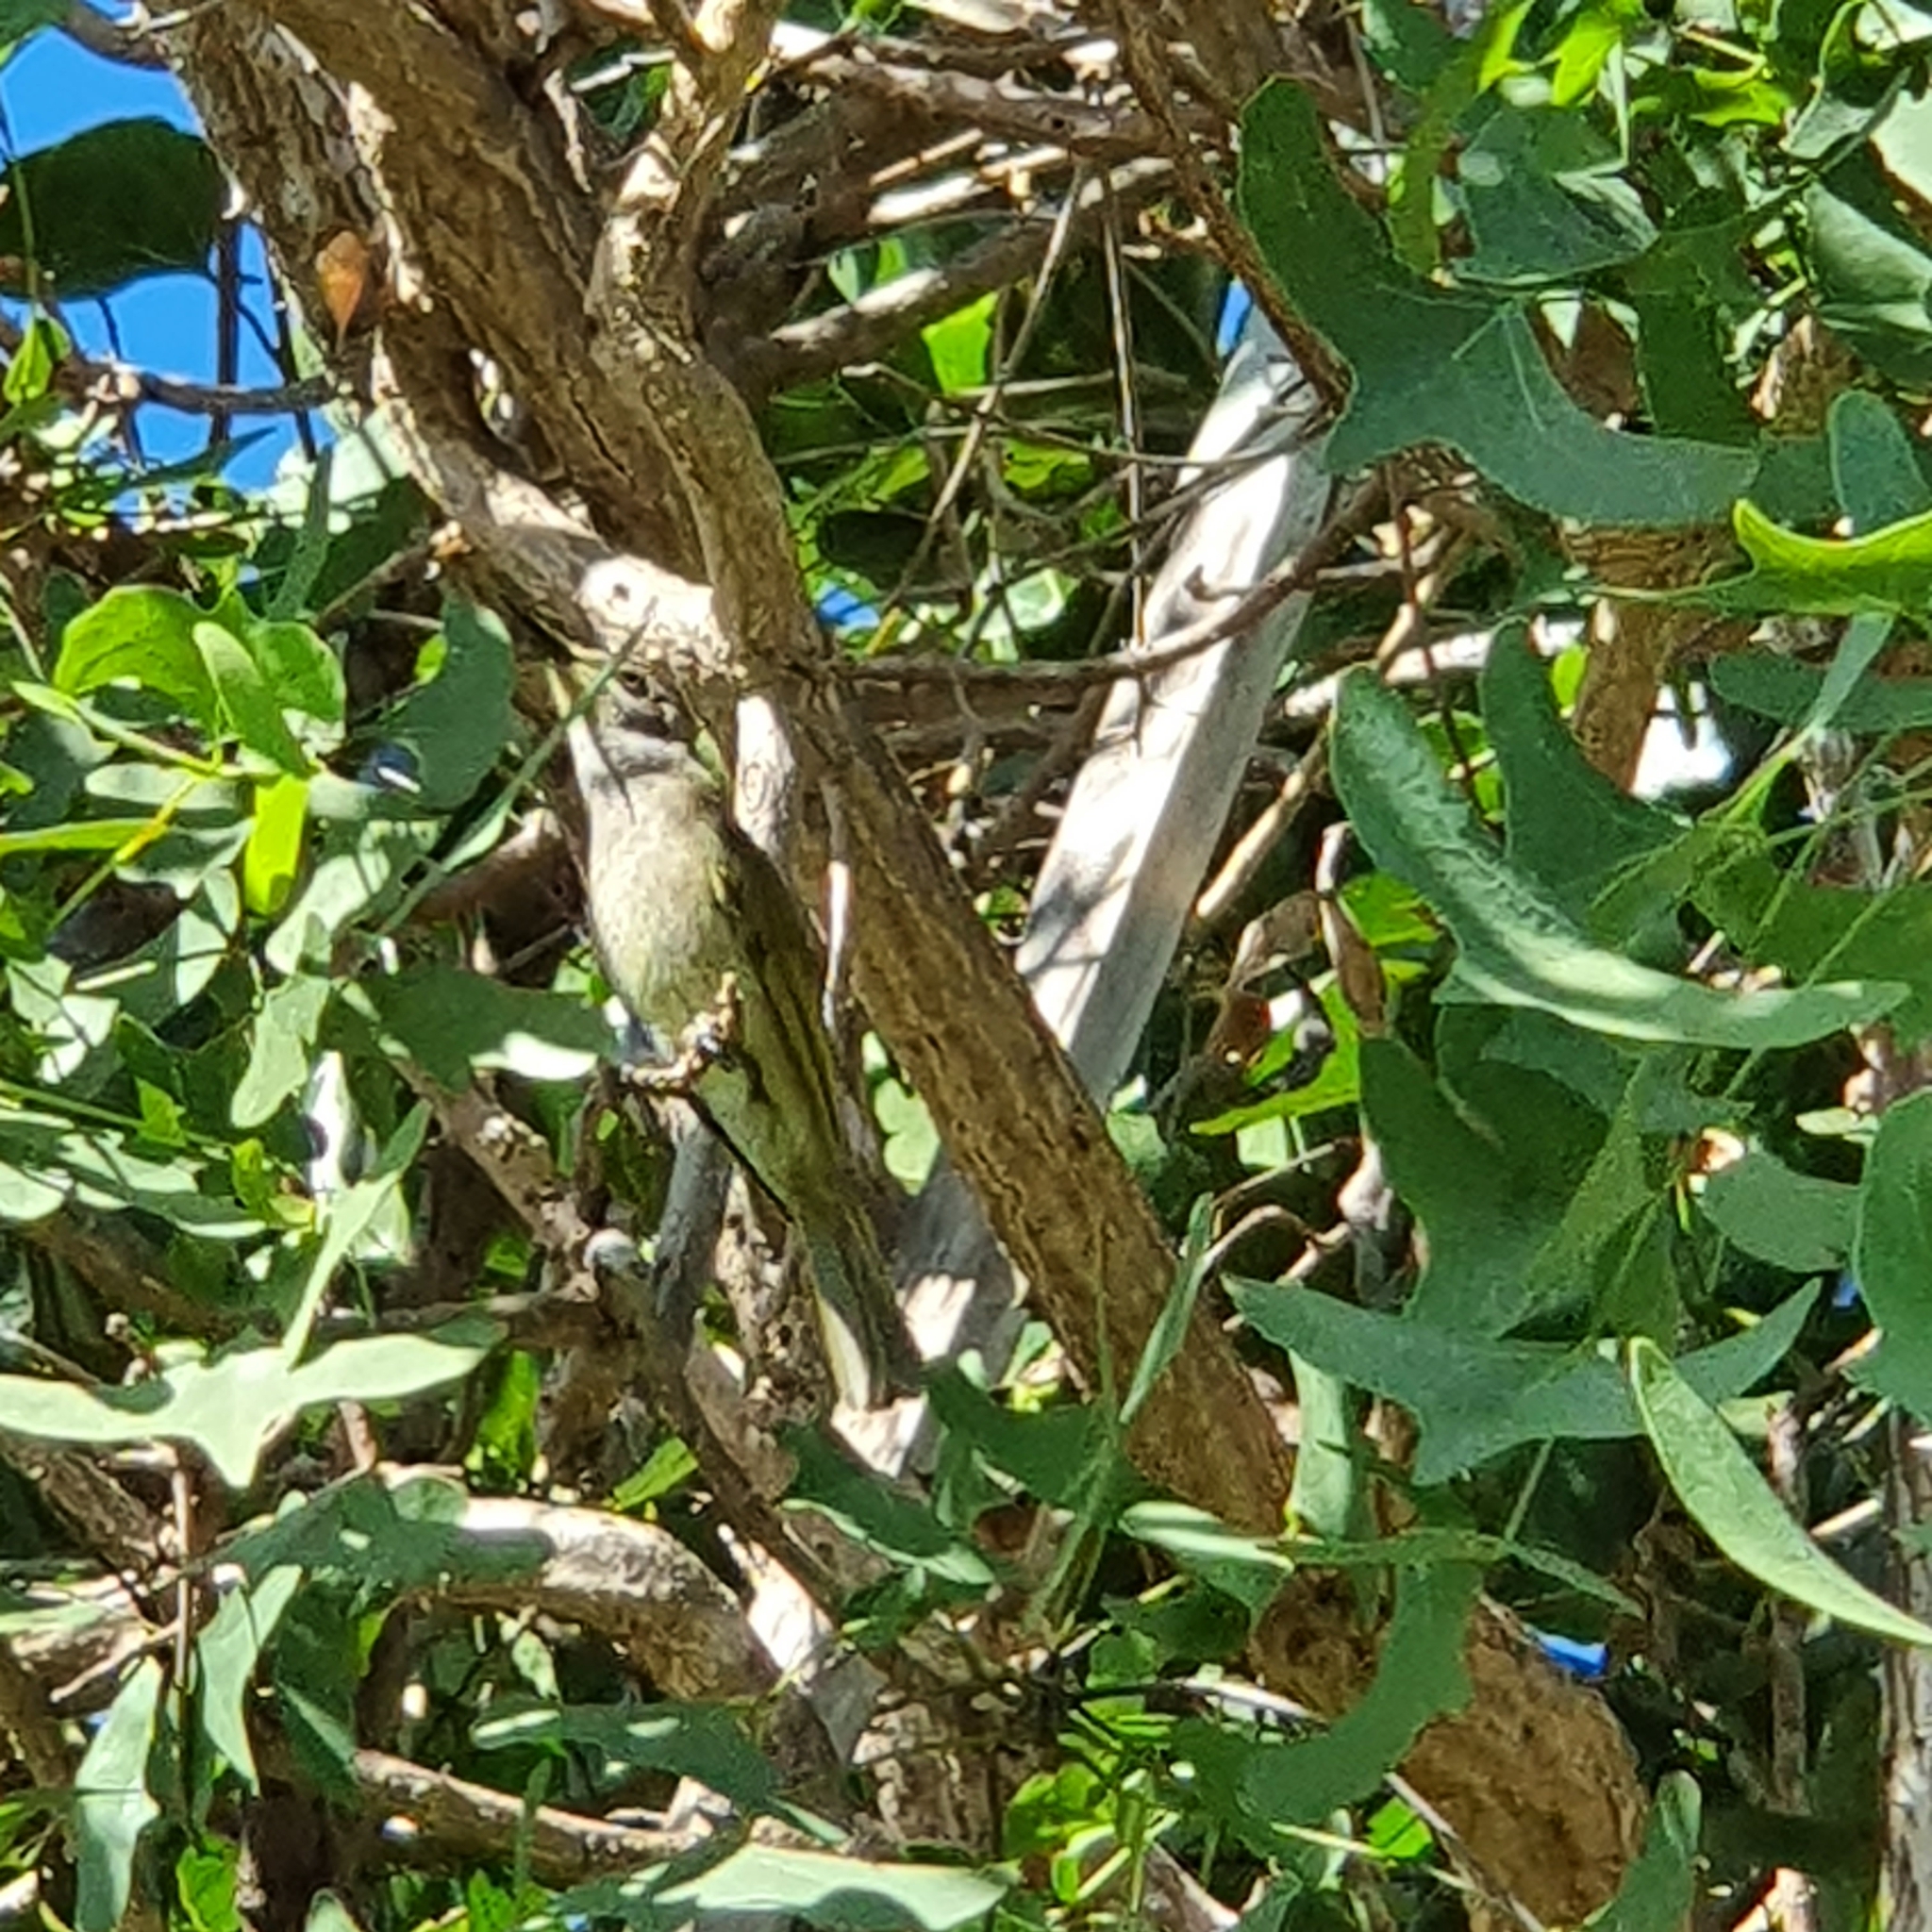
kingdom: Animalia
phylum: Chordata
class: Aves
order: Passeriformes
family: Meliphagidae
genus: Lichmera
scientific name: Lichmera indistincta
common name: Brown honeyeater
